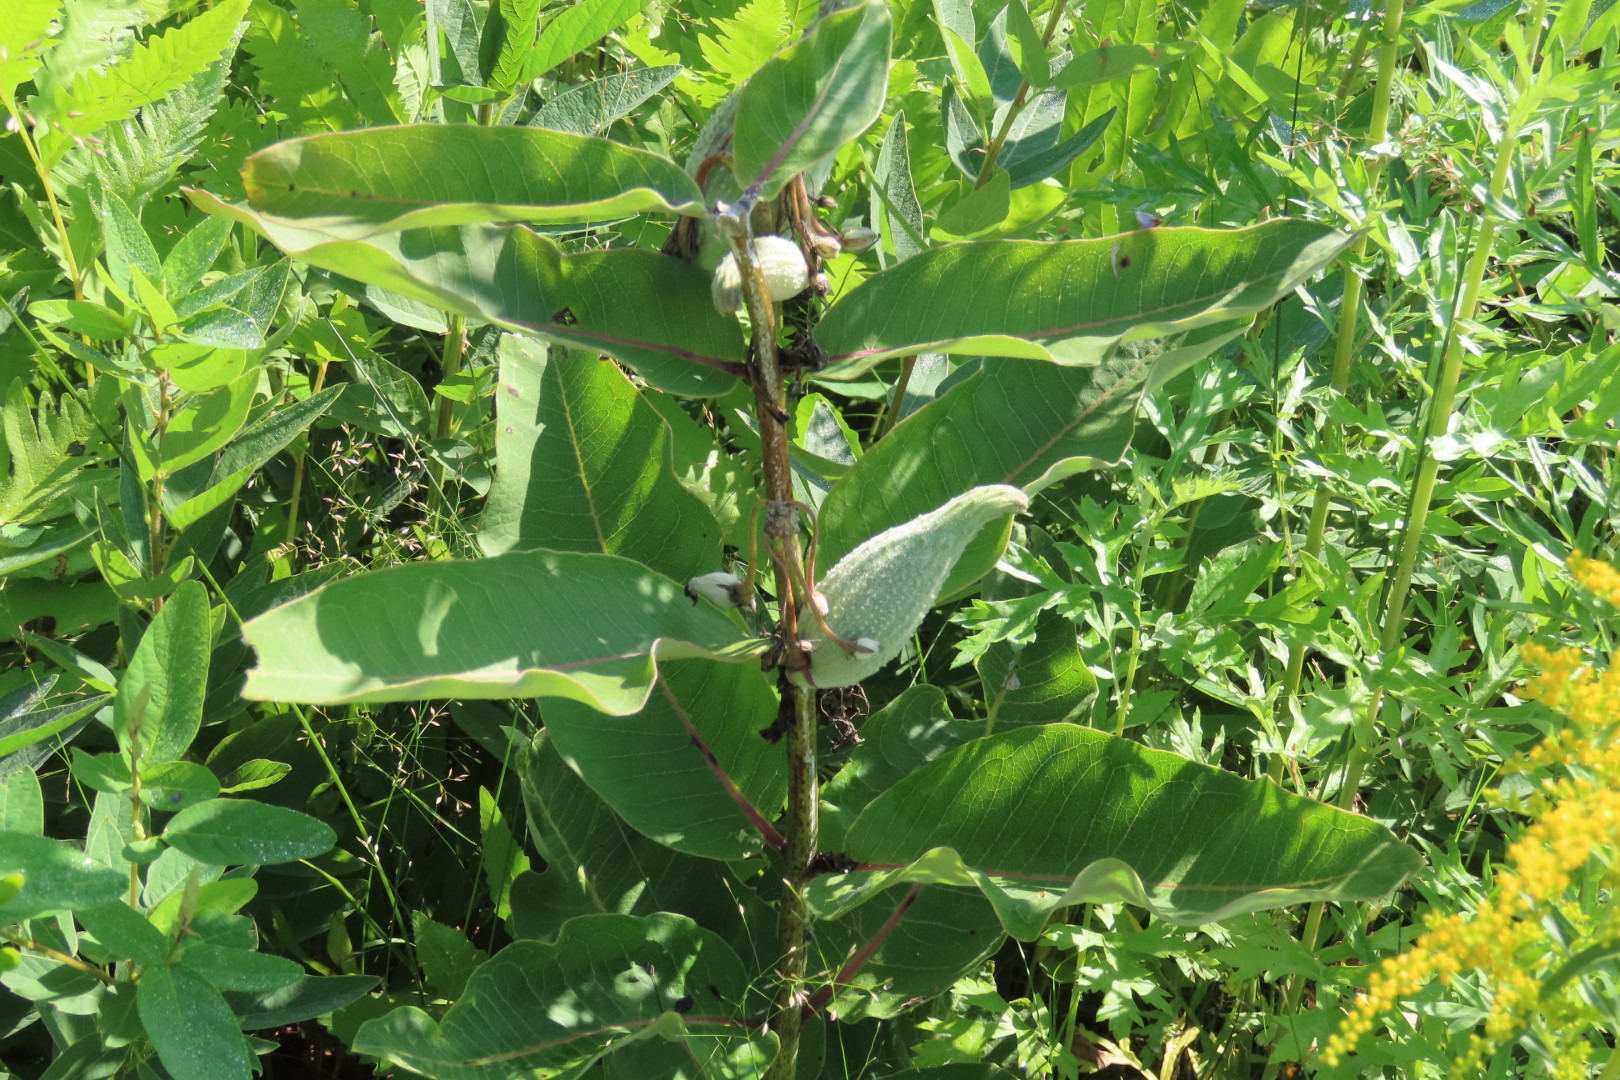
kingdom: Plantae
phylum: Tracheophyta
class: Magnoliopsida
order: Gentianales
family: Apocynaceae
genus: Asclepias
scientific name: Asclepias syriaca
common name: Common milkweed
